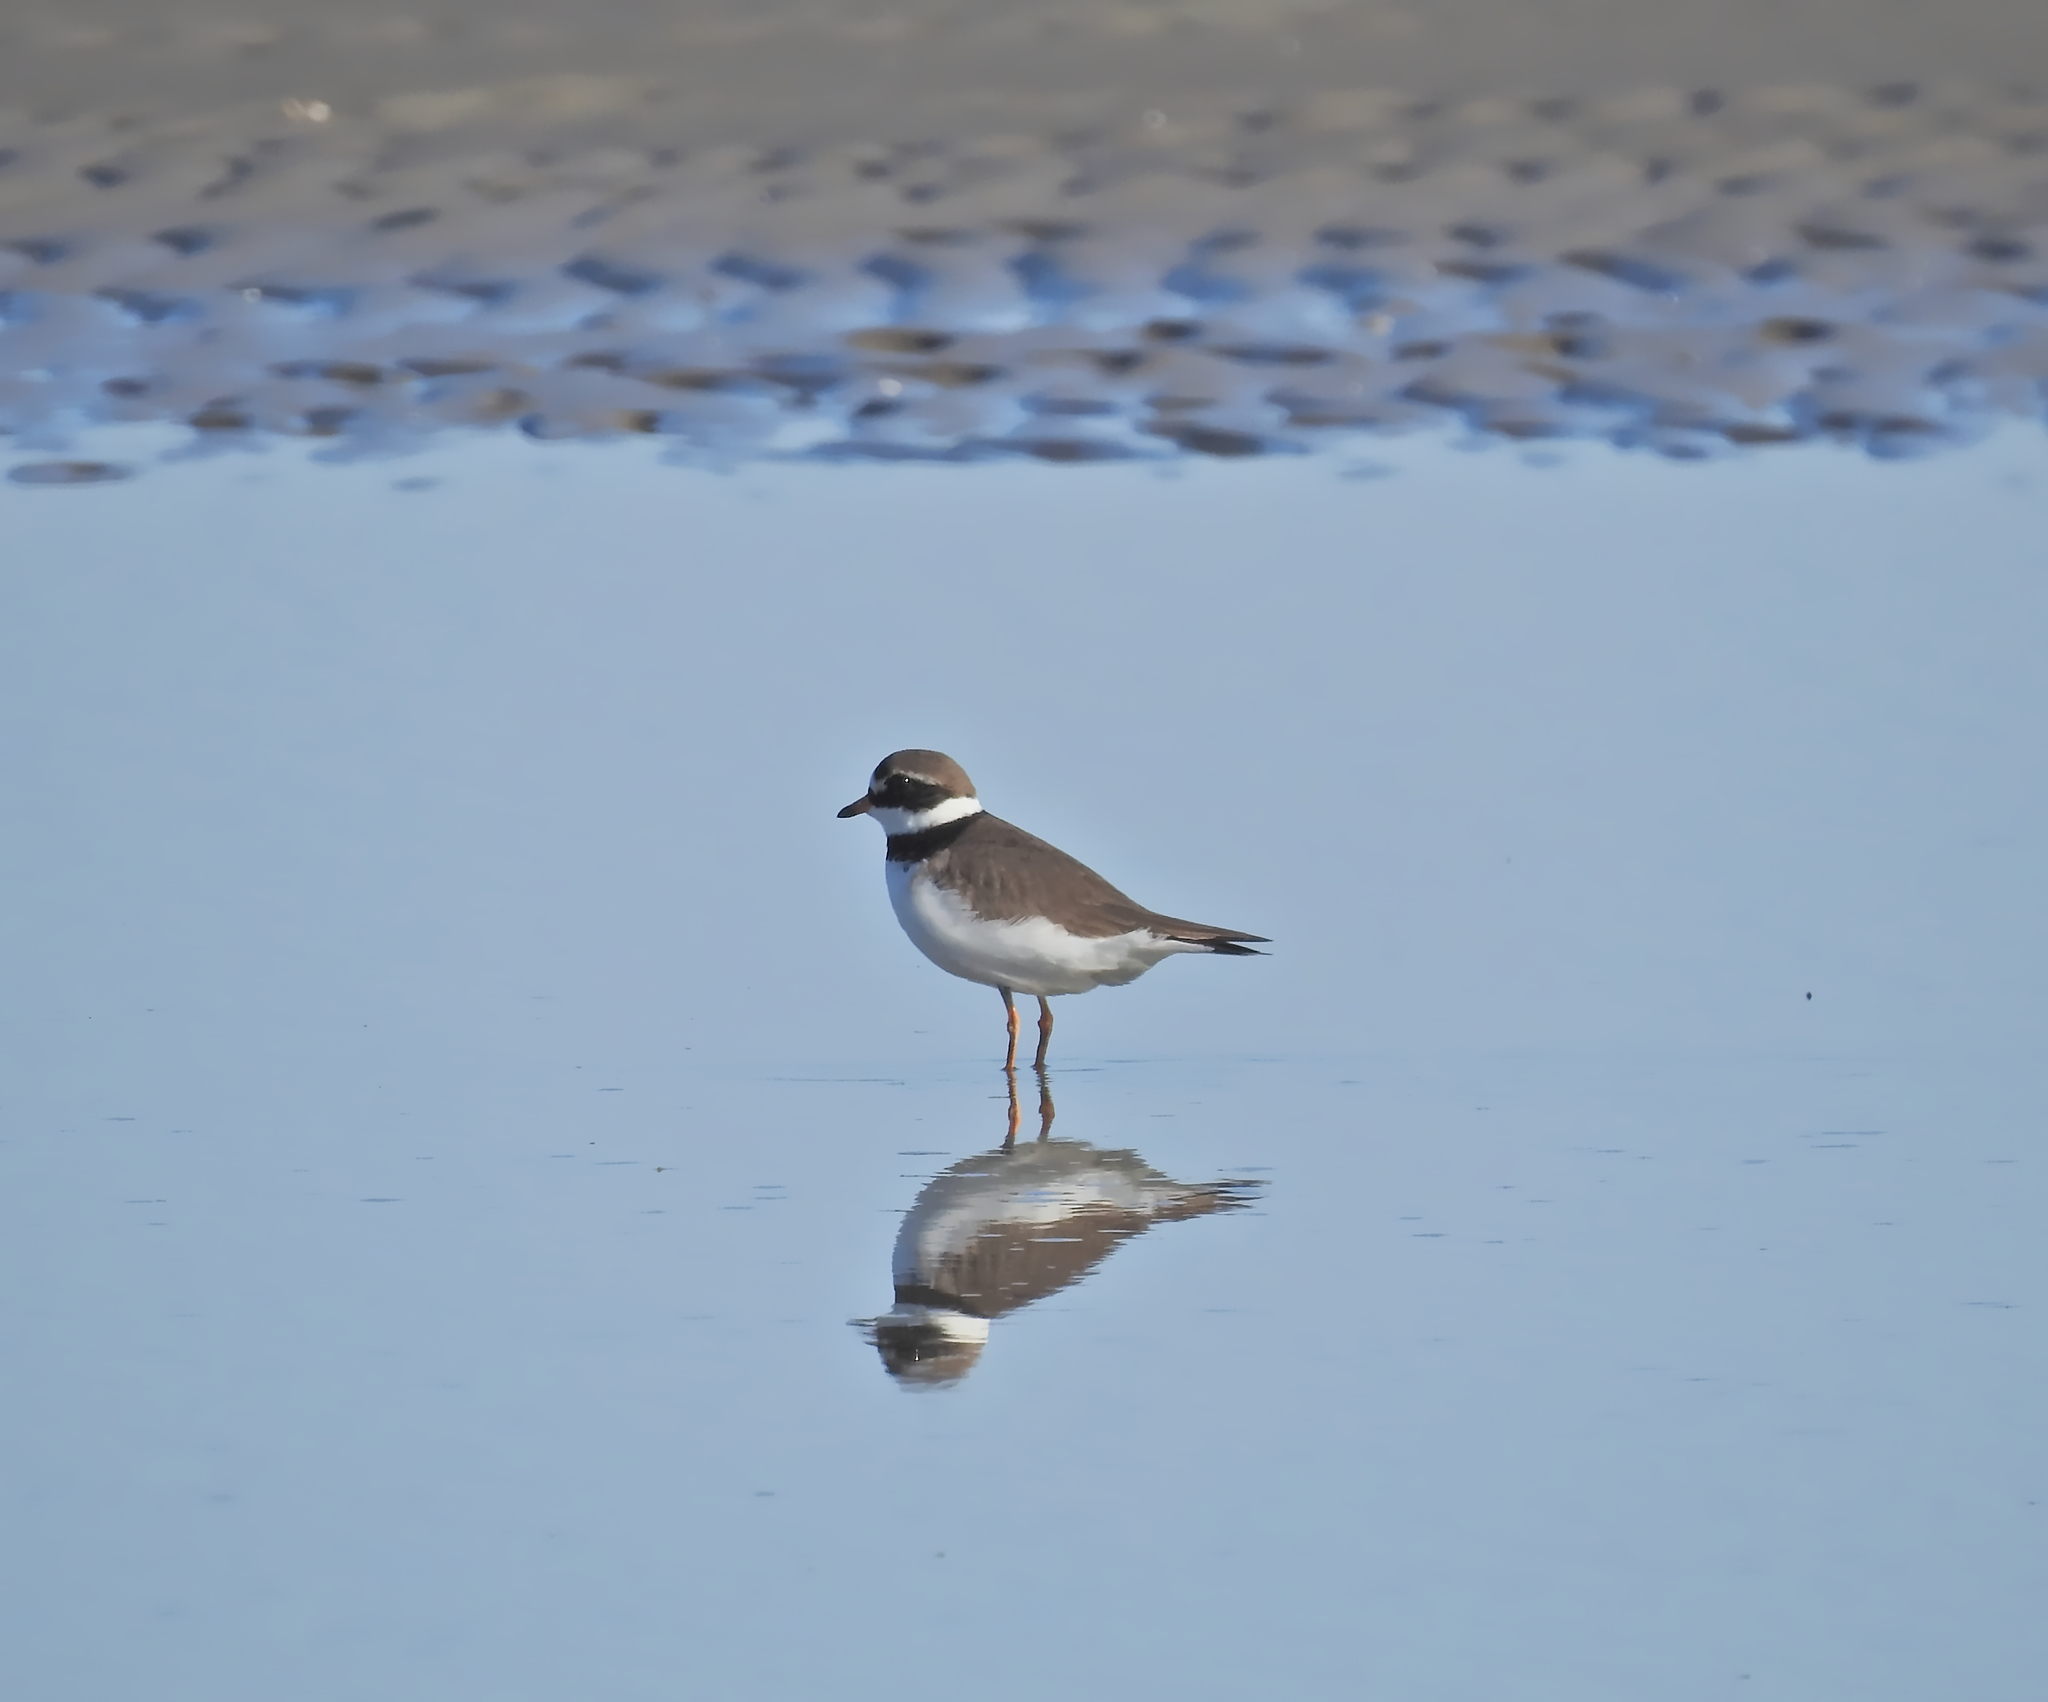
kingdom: Animalia
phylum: Chordata
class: Aves
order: Charadriiformes
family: Charadriidae
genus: Charadrius
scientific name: Charadrius hiaticula
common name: Common ringed plover
